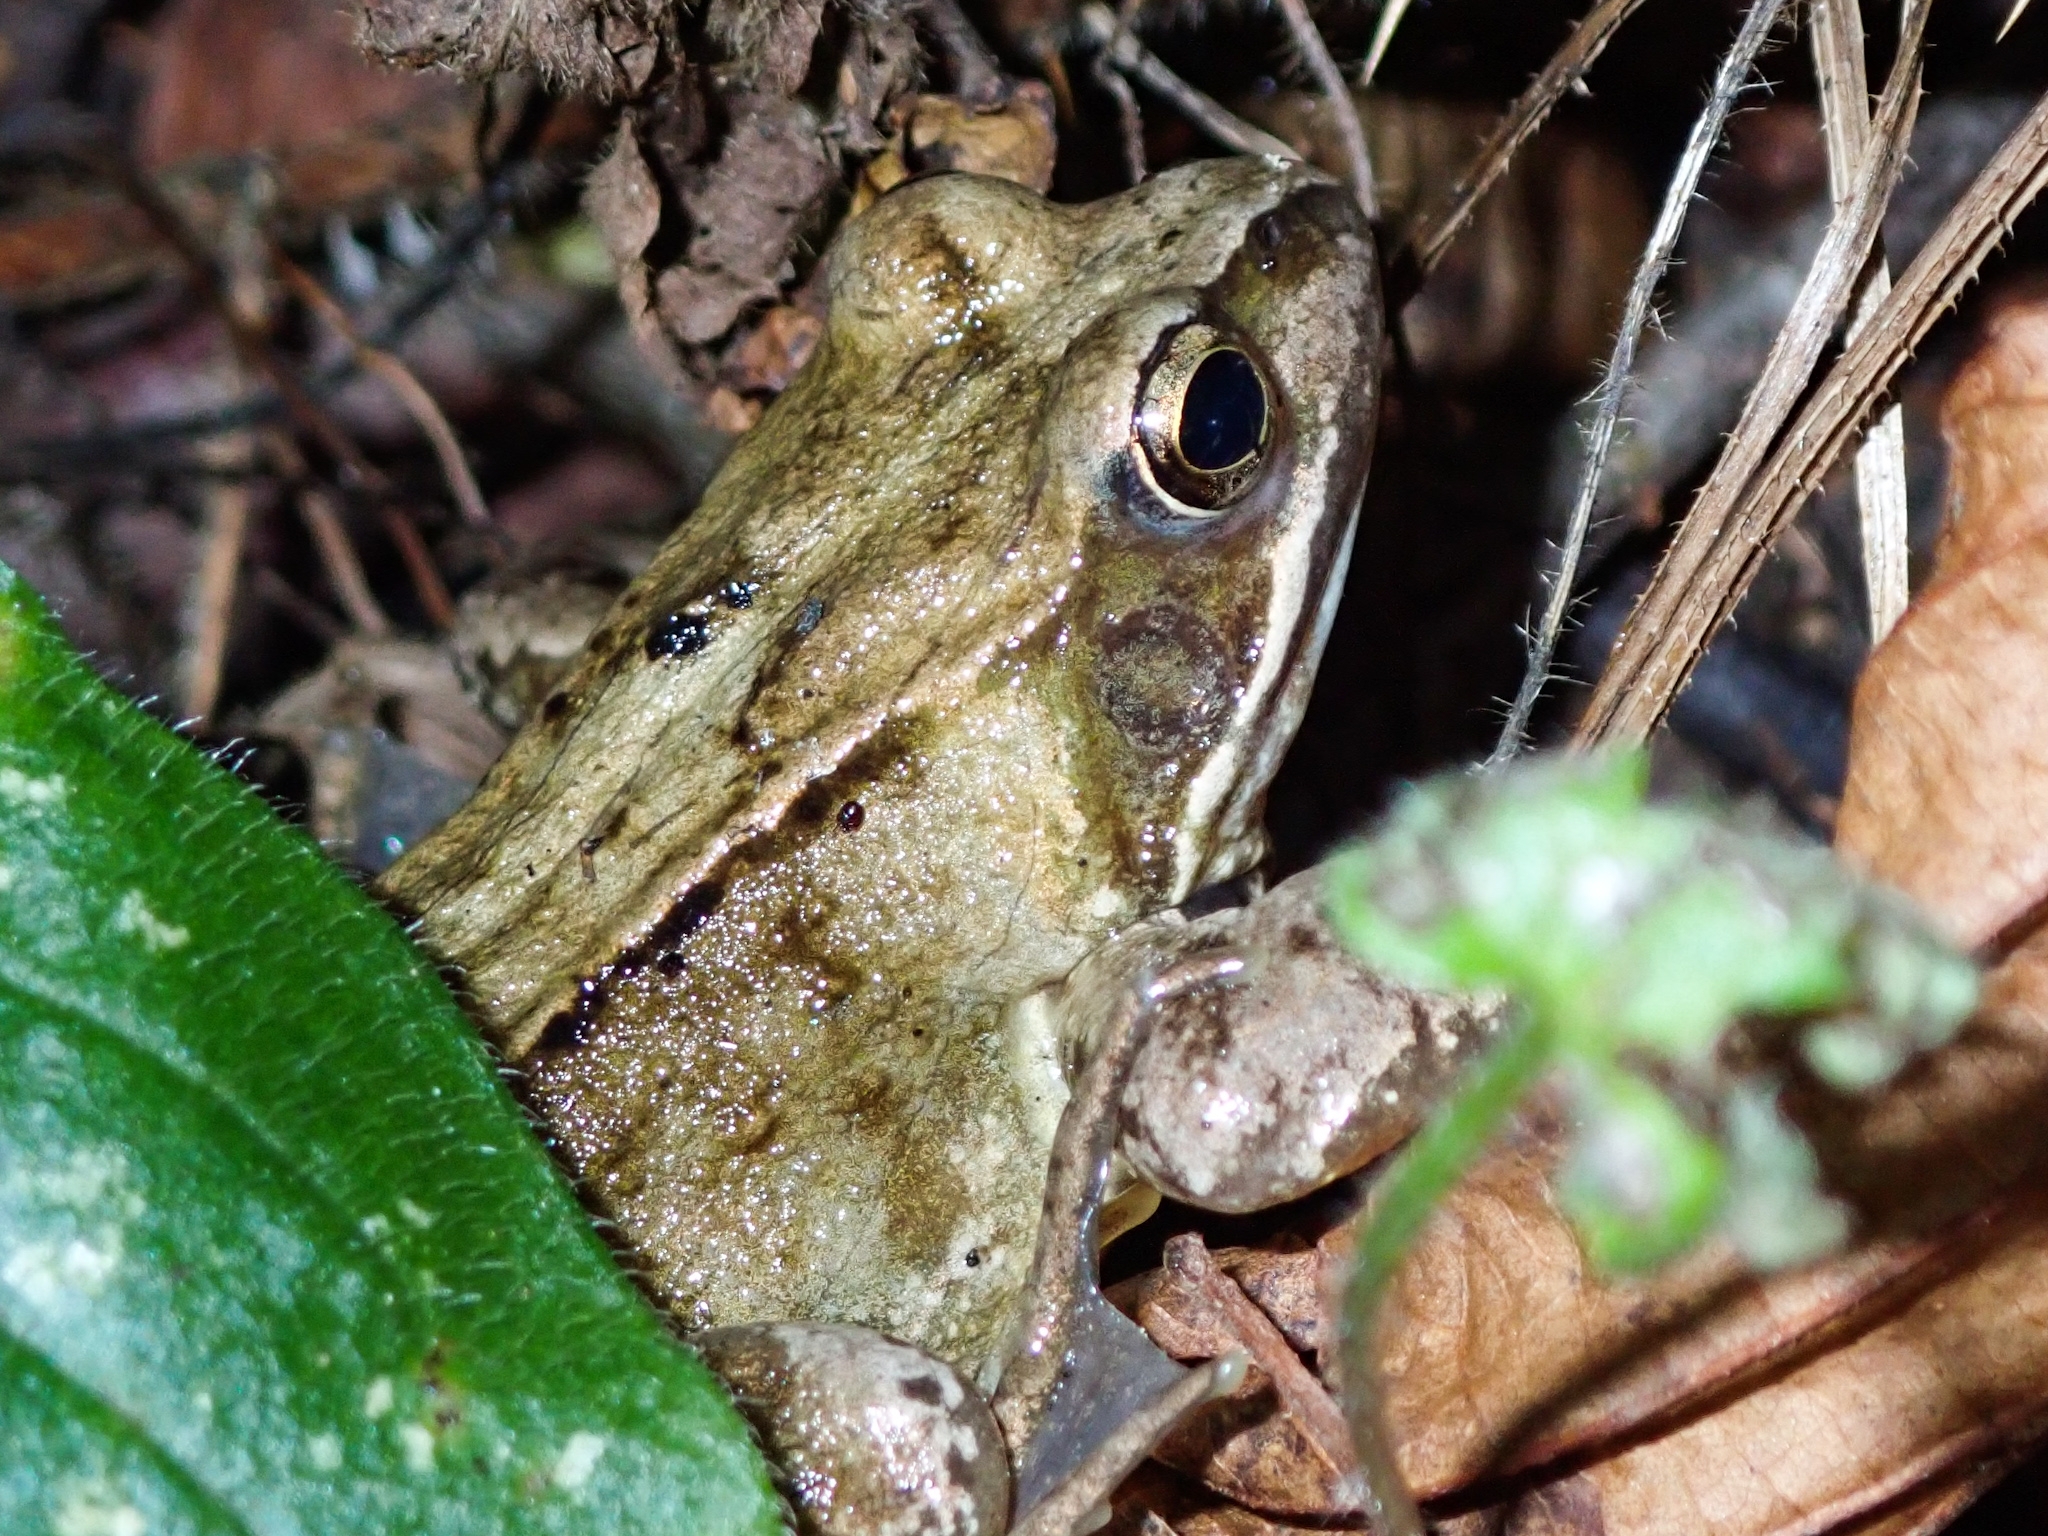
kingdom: Animalia
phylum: Chordata
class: Amphibia
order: Anura
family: Ranidae
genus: Rana
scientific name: Rana temporaria
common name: Common frog
